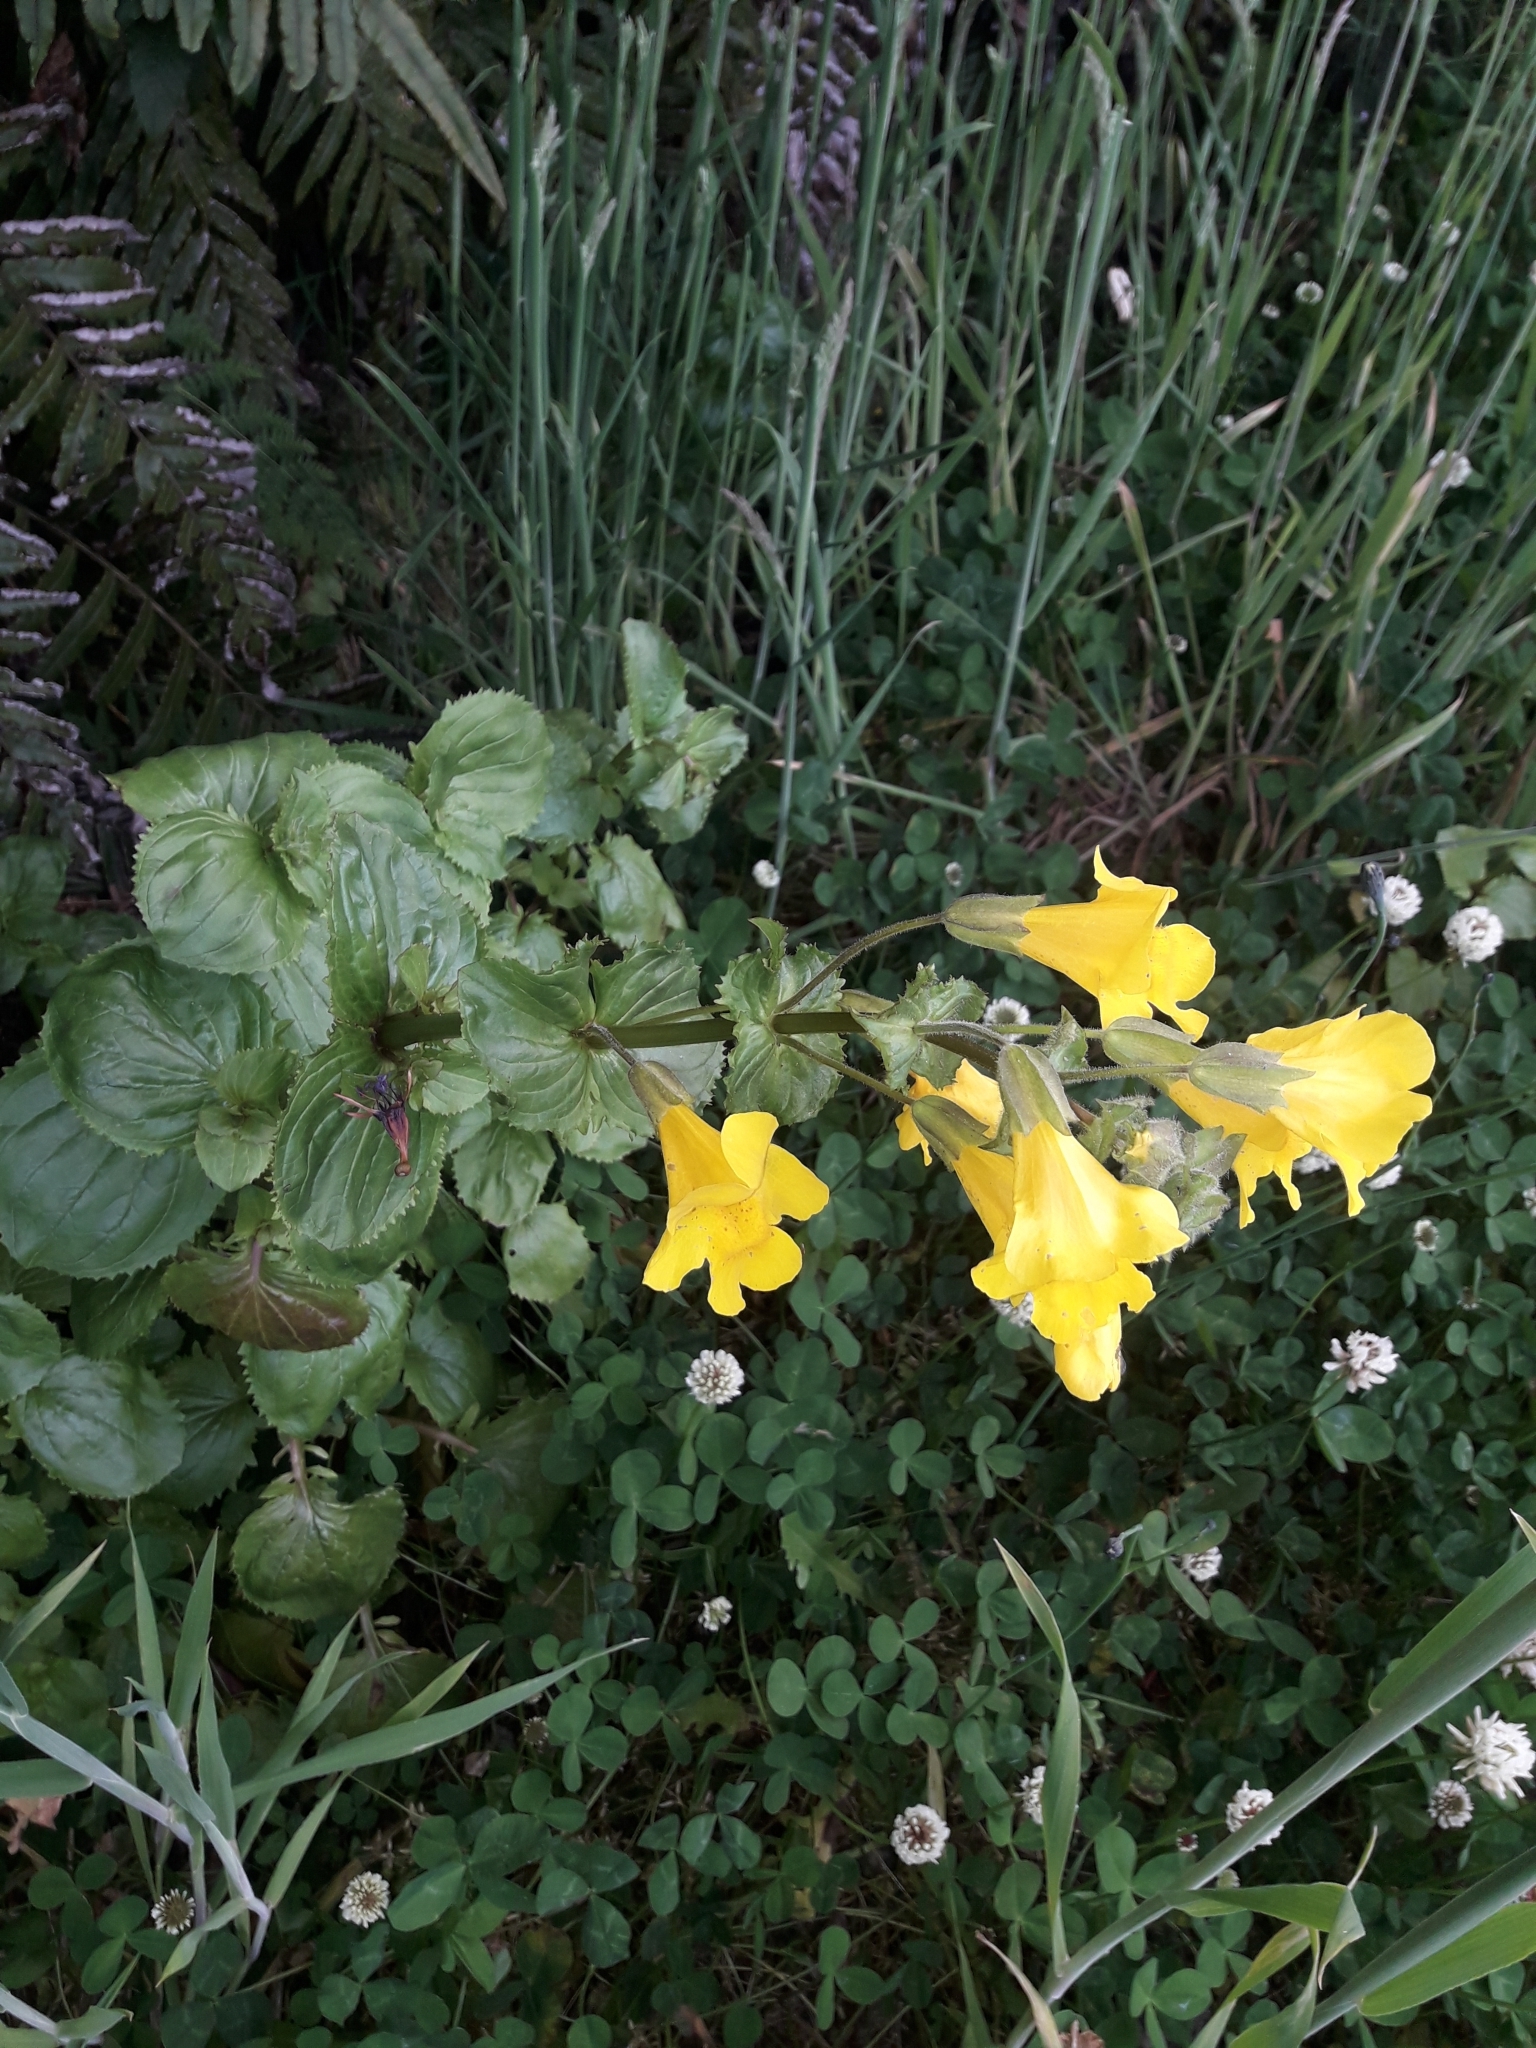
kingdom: Plantae
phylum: Tracheophyta
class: Magnoliopsida
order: Lamiales
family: Phrymaceae
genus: Erythranthe
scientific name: Erythranthe guttata
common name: Monkeyflower
